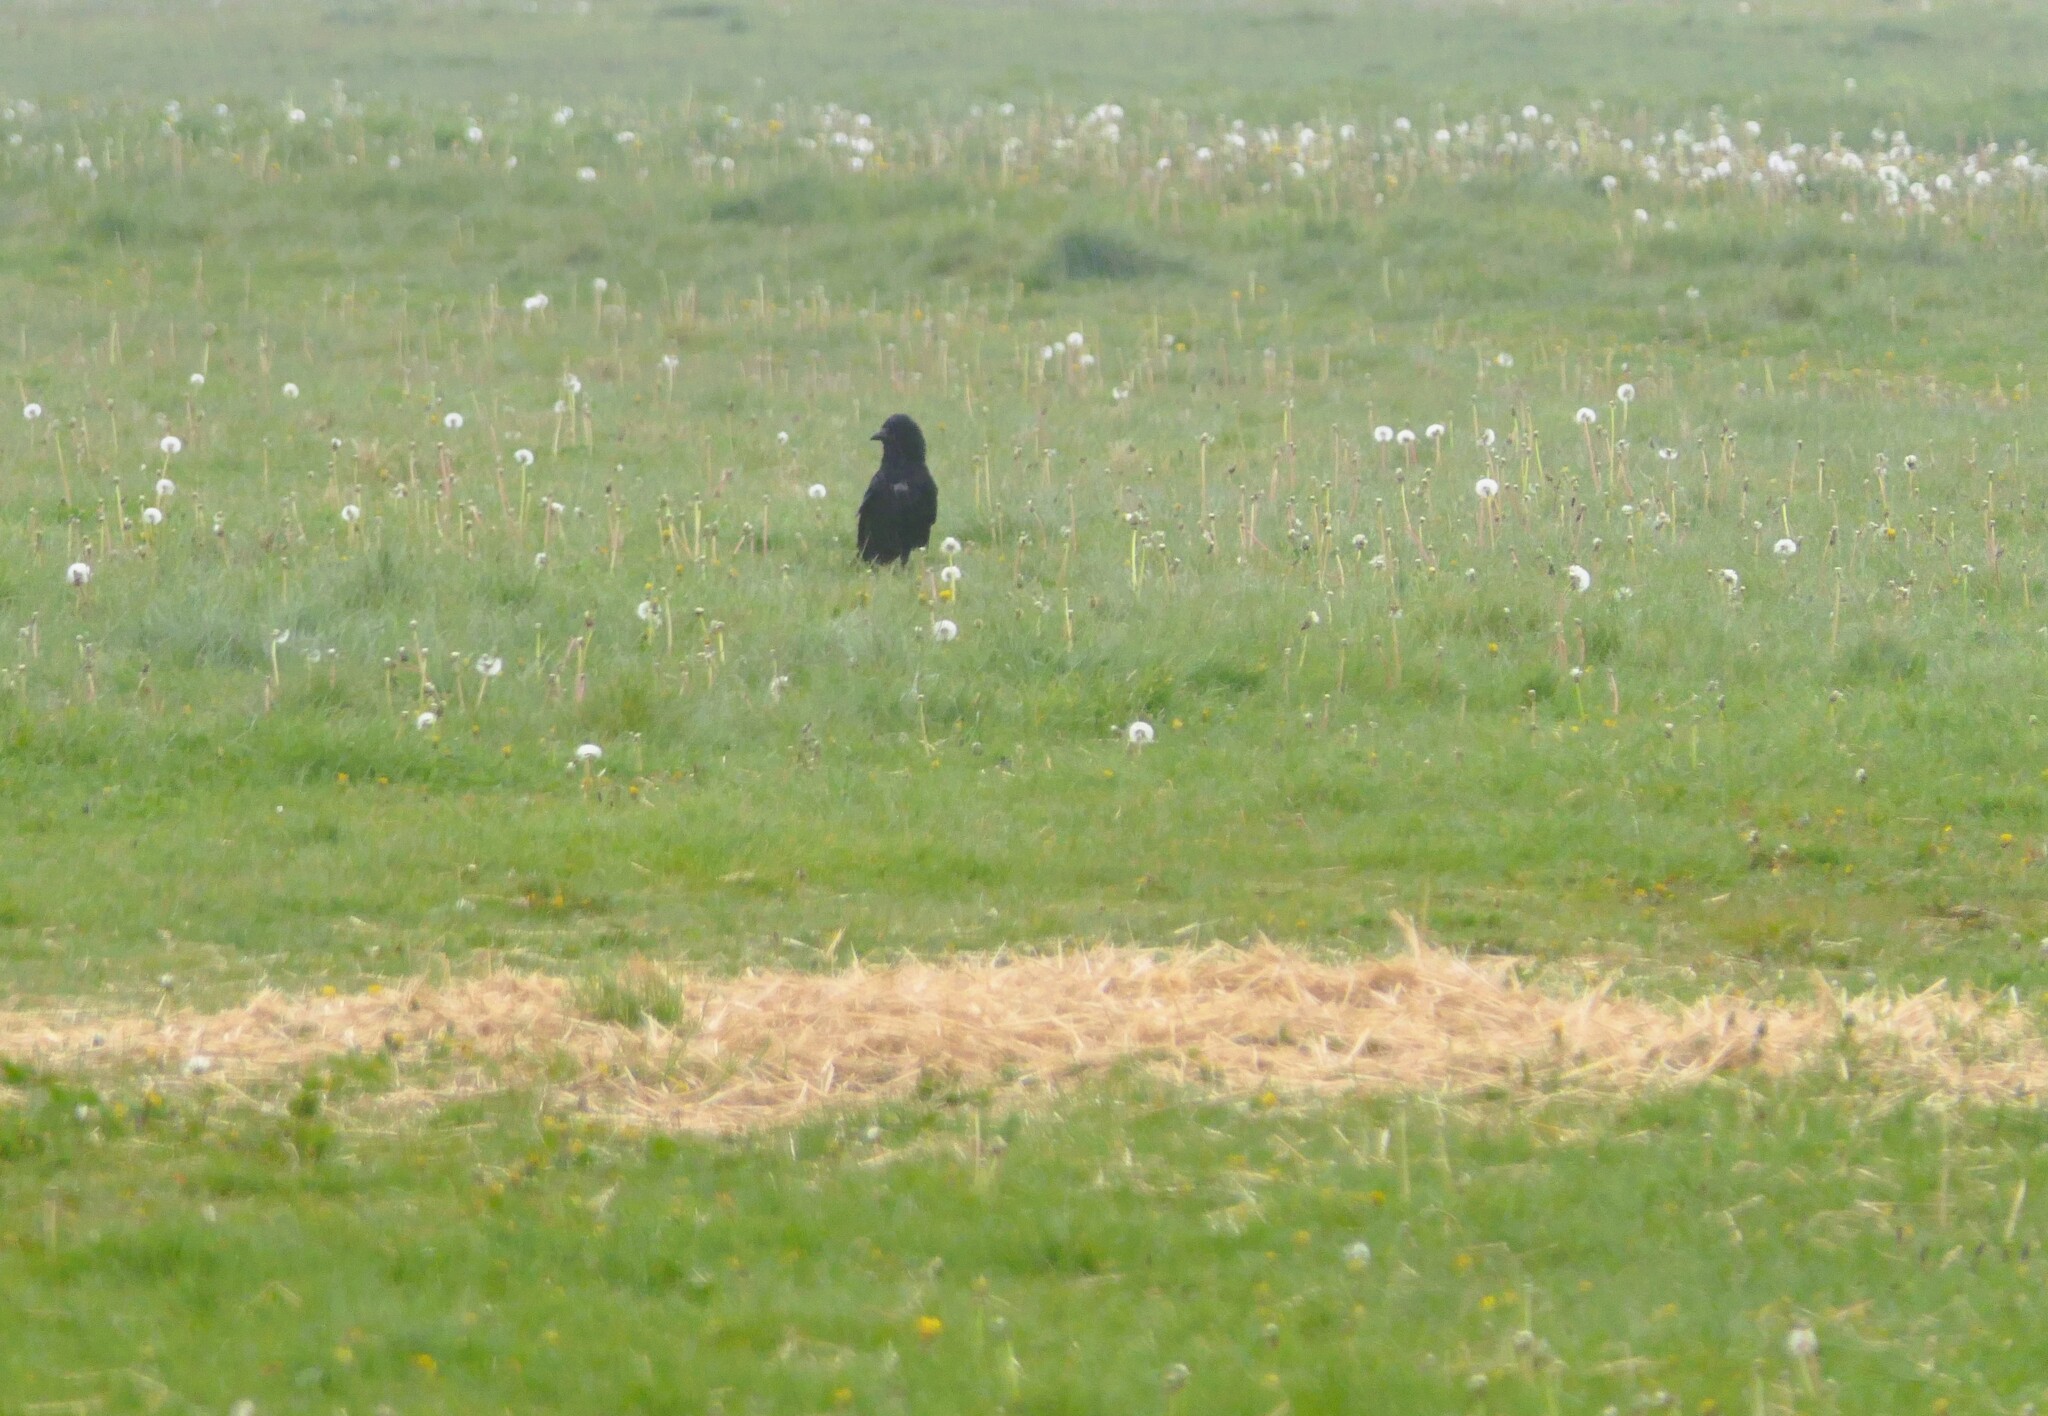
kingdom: Animalia
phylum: Chordata
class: Aves
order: Passeriformes
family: Corvidae
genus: Corvus
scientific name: Corvus corone
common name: Carrion crow
